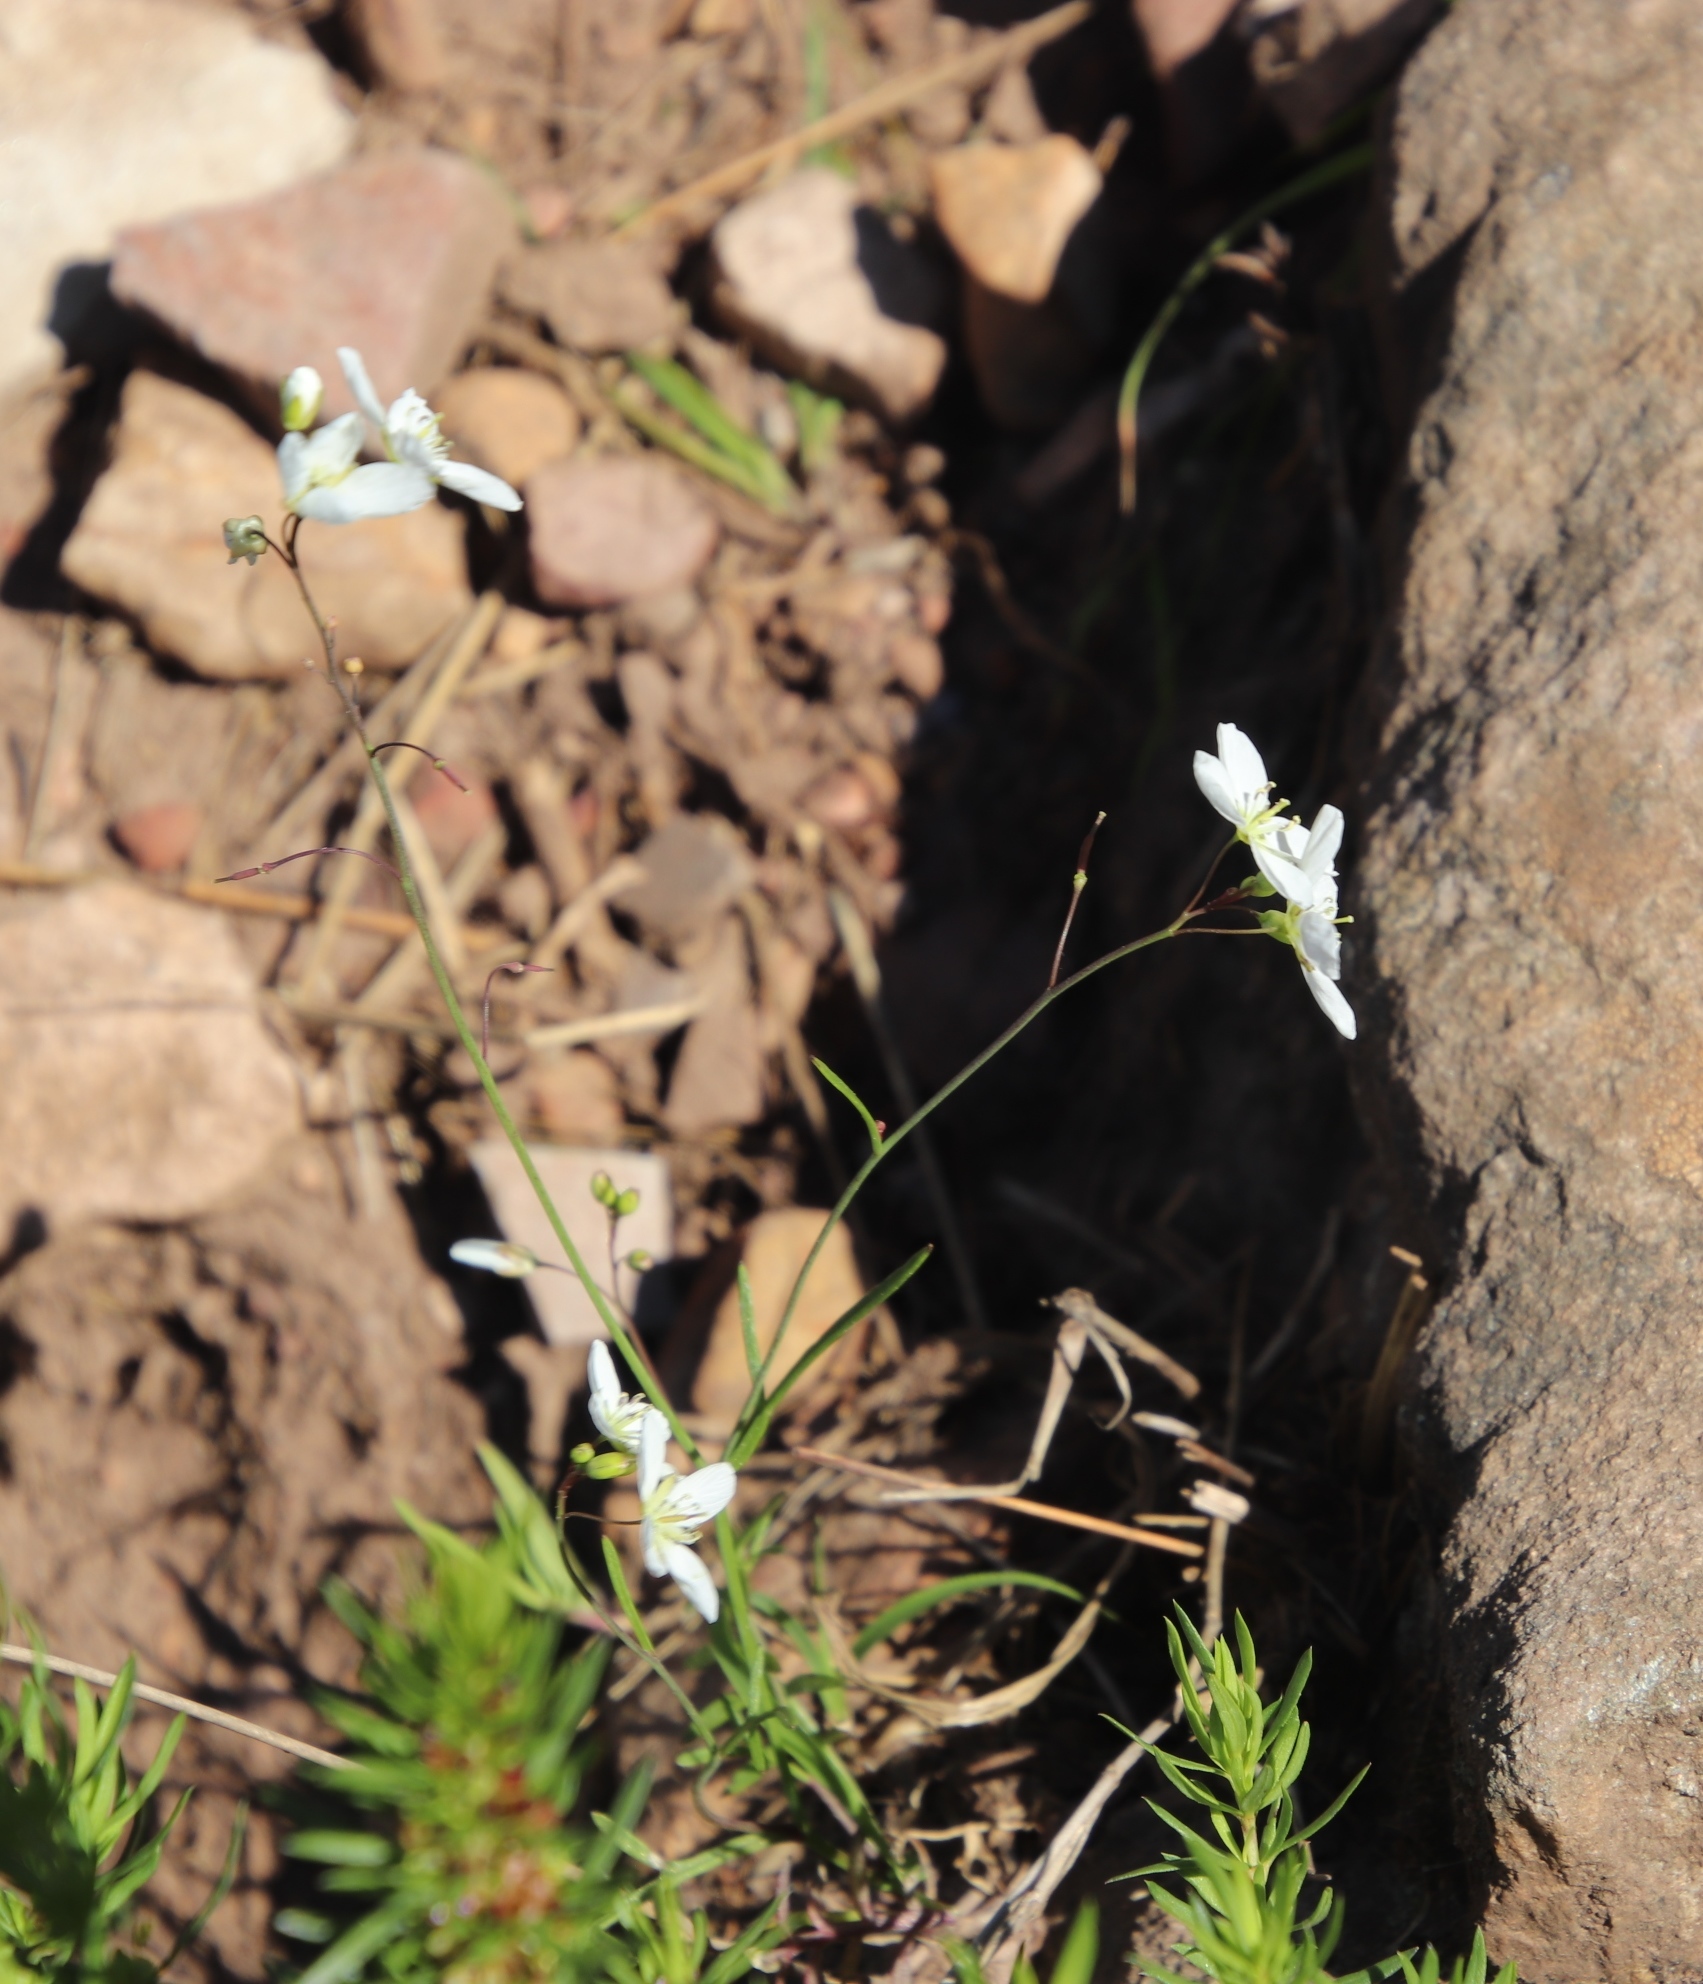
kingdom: Plantae
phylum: Tracheophyta
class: Magnoliopsida
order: Brassicales
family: Brassicaceae
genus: Heliophila
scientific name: Heliophila diffusa
